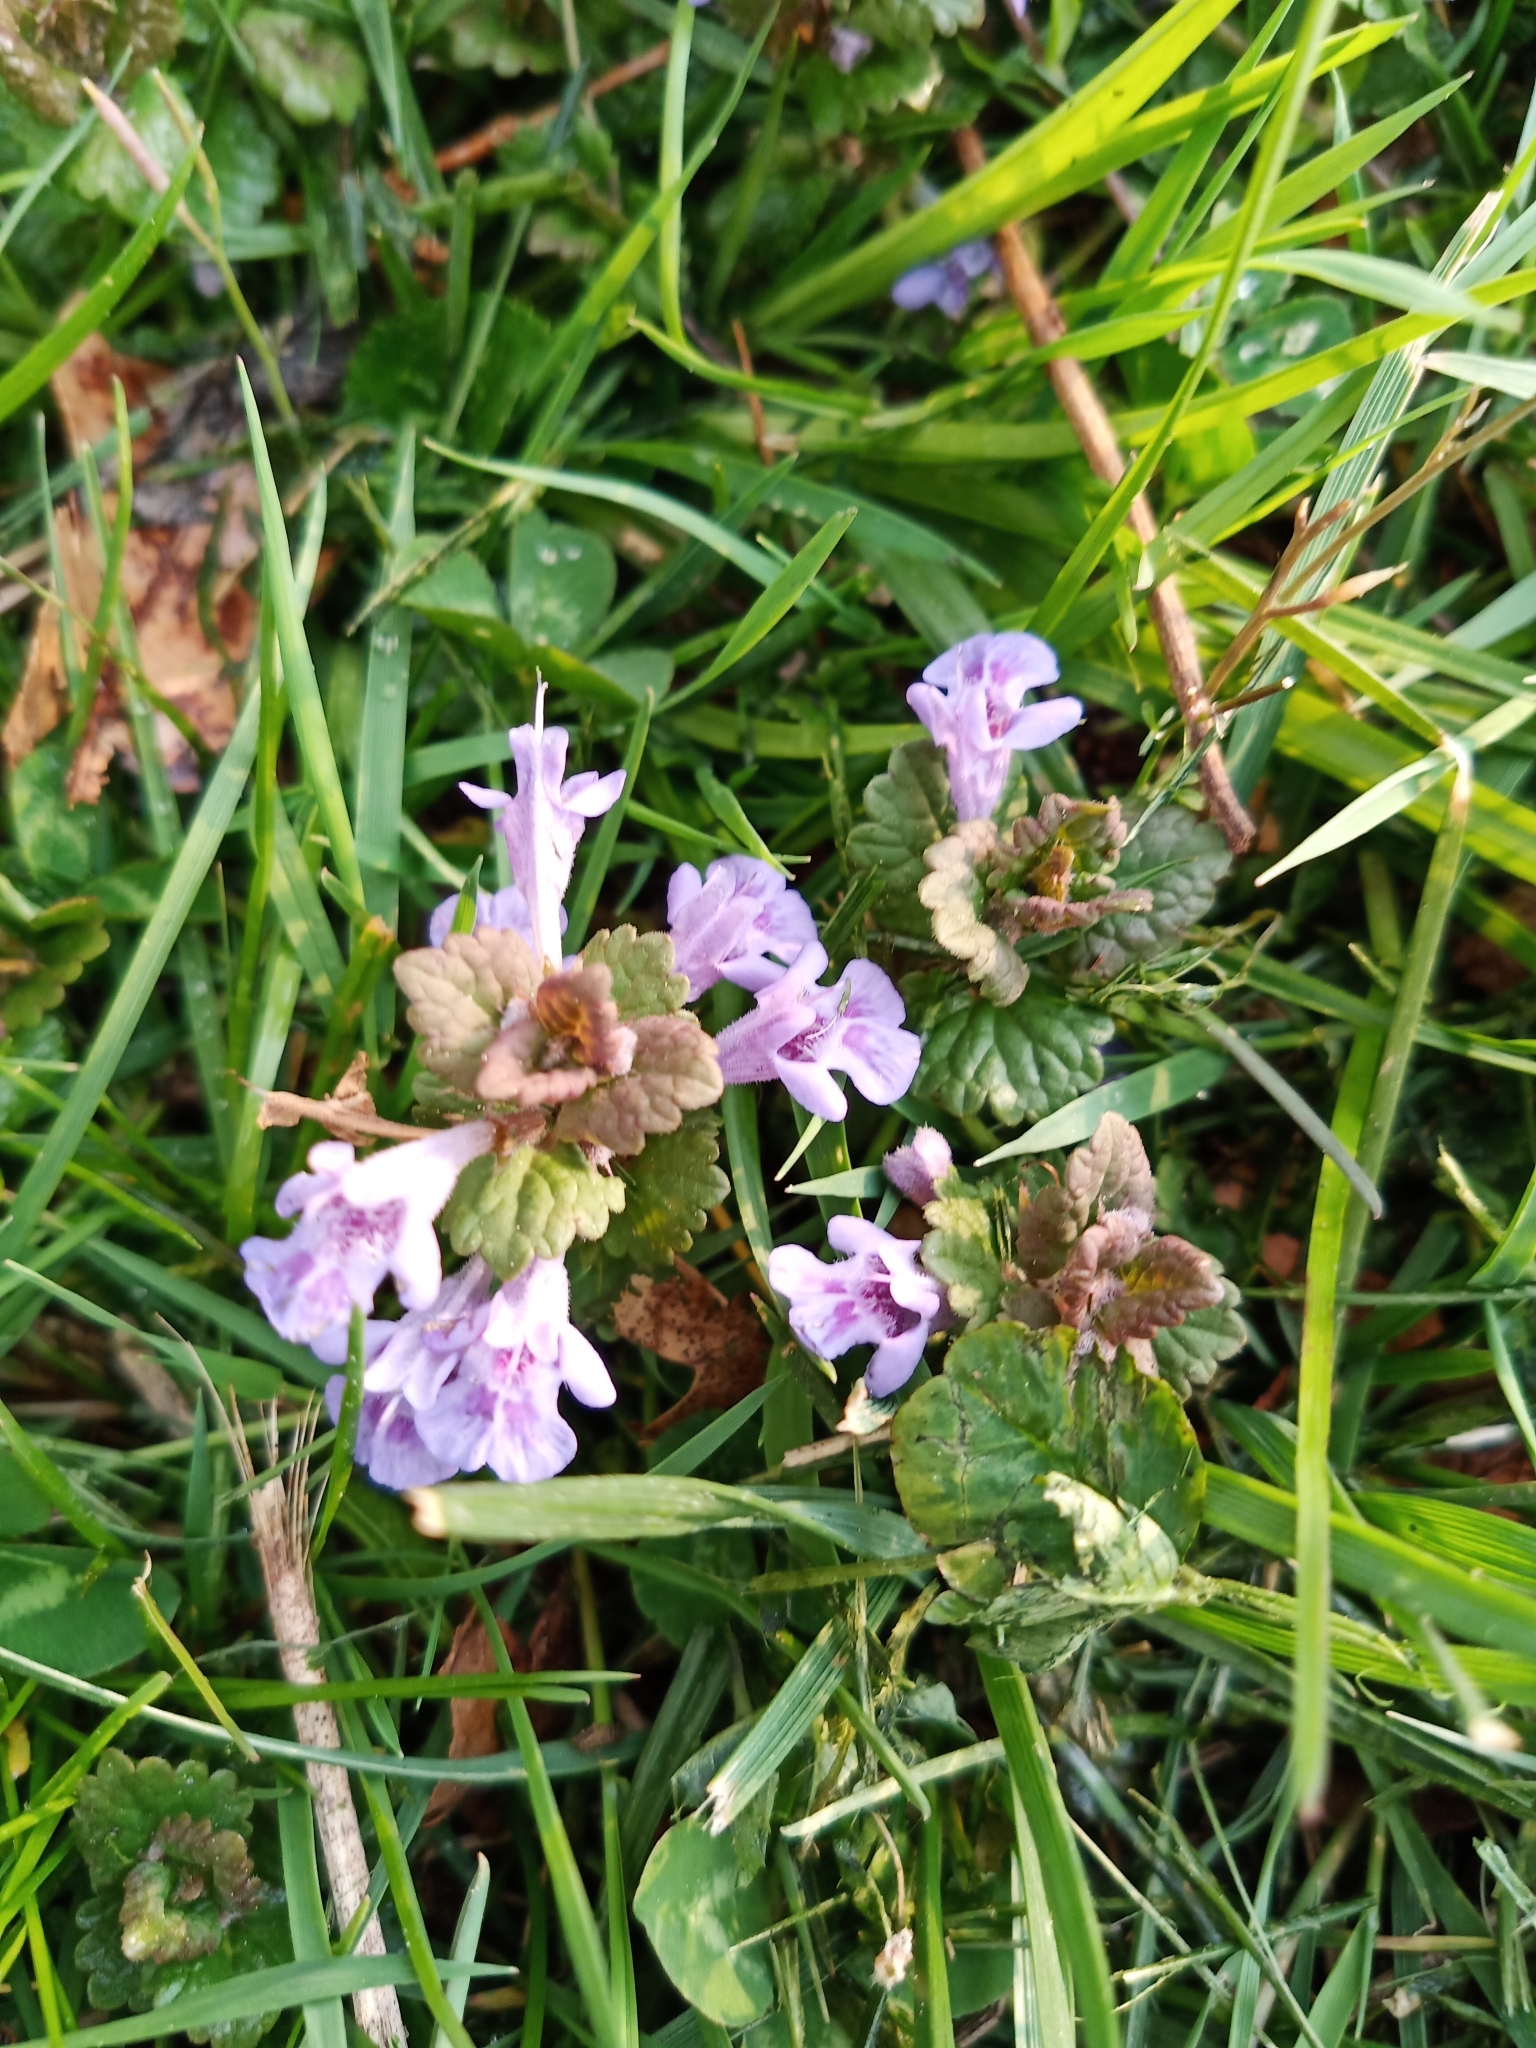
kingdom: Plantae
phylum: Tracheophyta
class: Magnoliopsida
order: Lamiales
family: Lamiaceae
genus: Glechoma
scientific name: Glechoma hederacea
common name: Ground ivy
